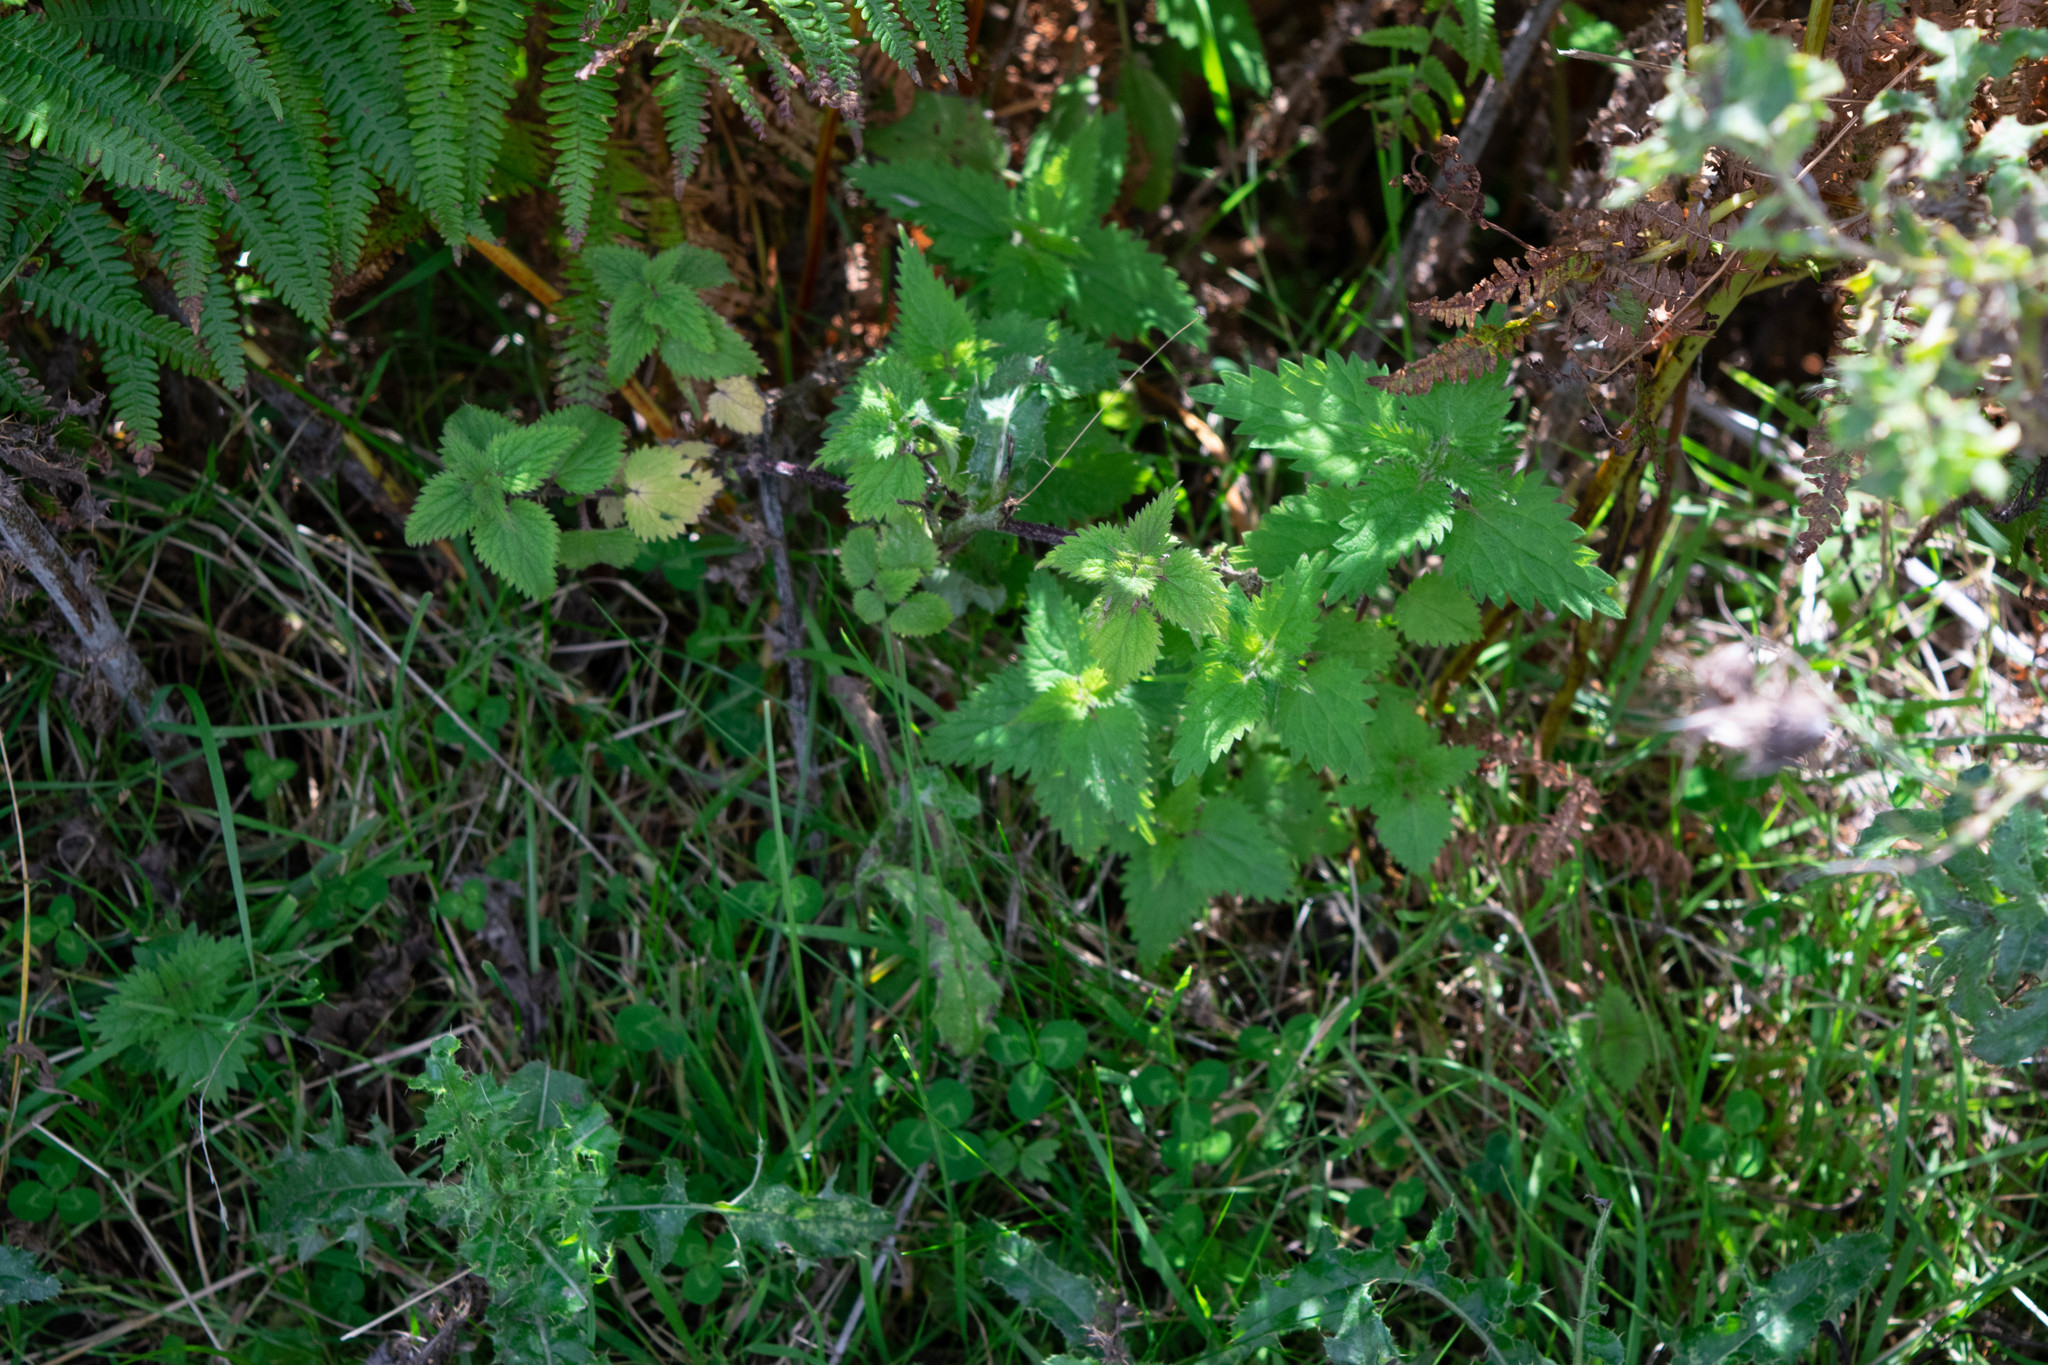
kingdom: Plantae
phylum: Tracheophyta
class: Magnoliopsida
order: Rosales
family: Urticaceae
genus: Urtica
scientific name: Urtica dioica
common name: Common nettle
